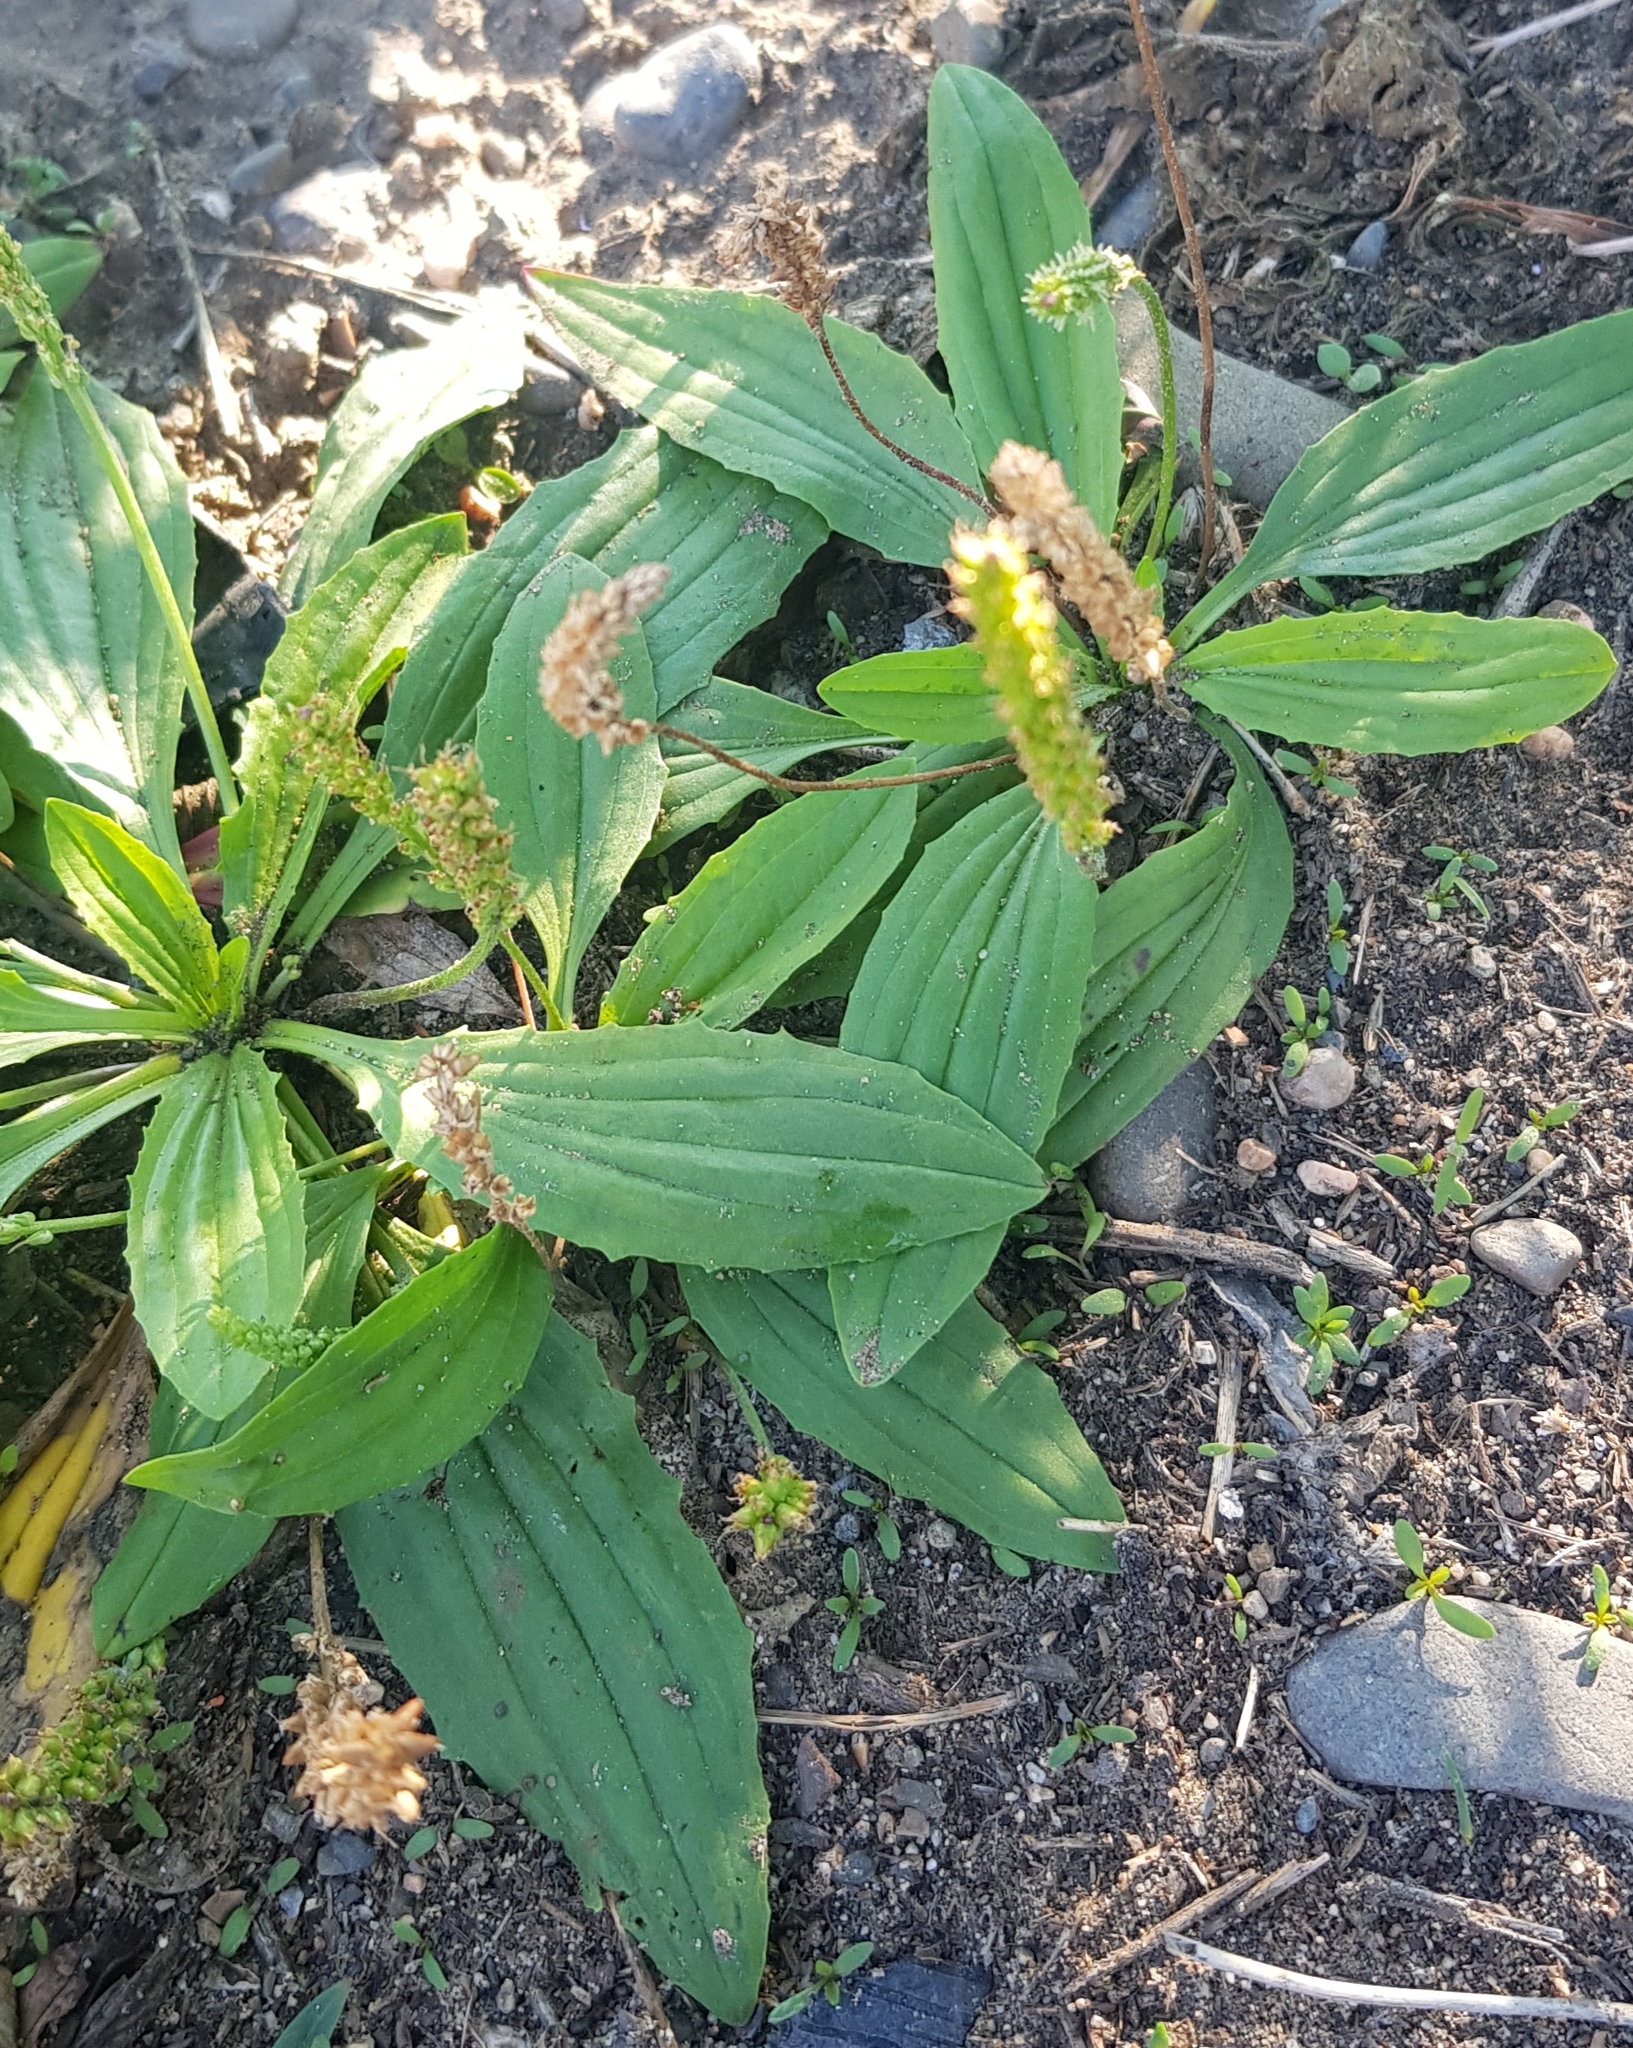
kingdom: Plantae
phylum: Tracheophyta
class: Magnoliopsida
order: Lamiales
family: Plantaginaceae
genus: Plantago
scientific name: Plantago depressa
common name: Depressed plantain
